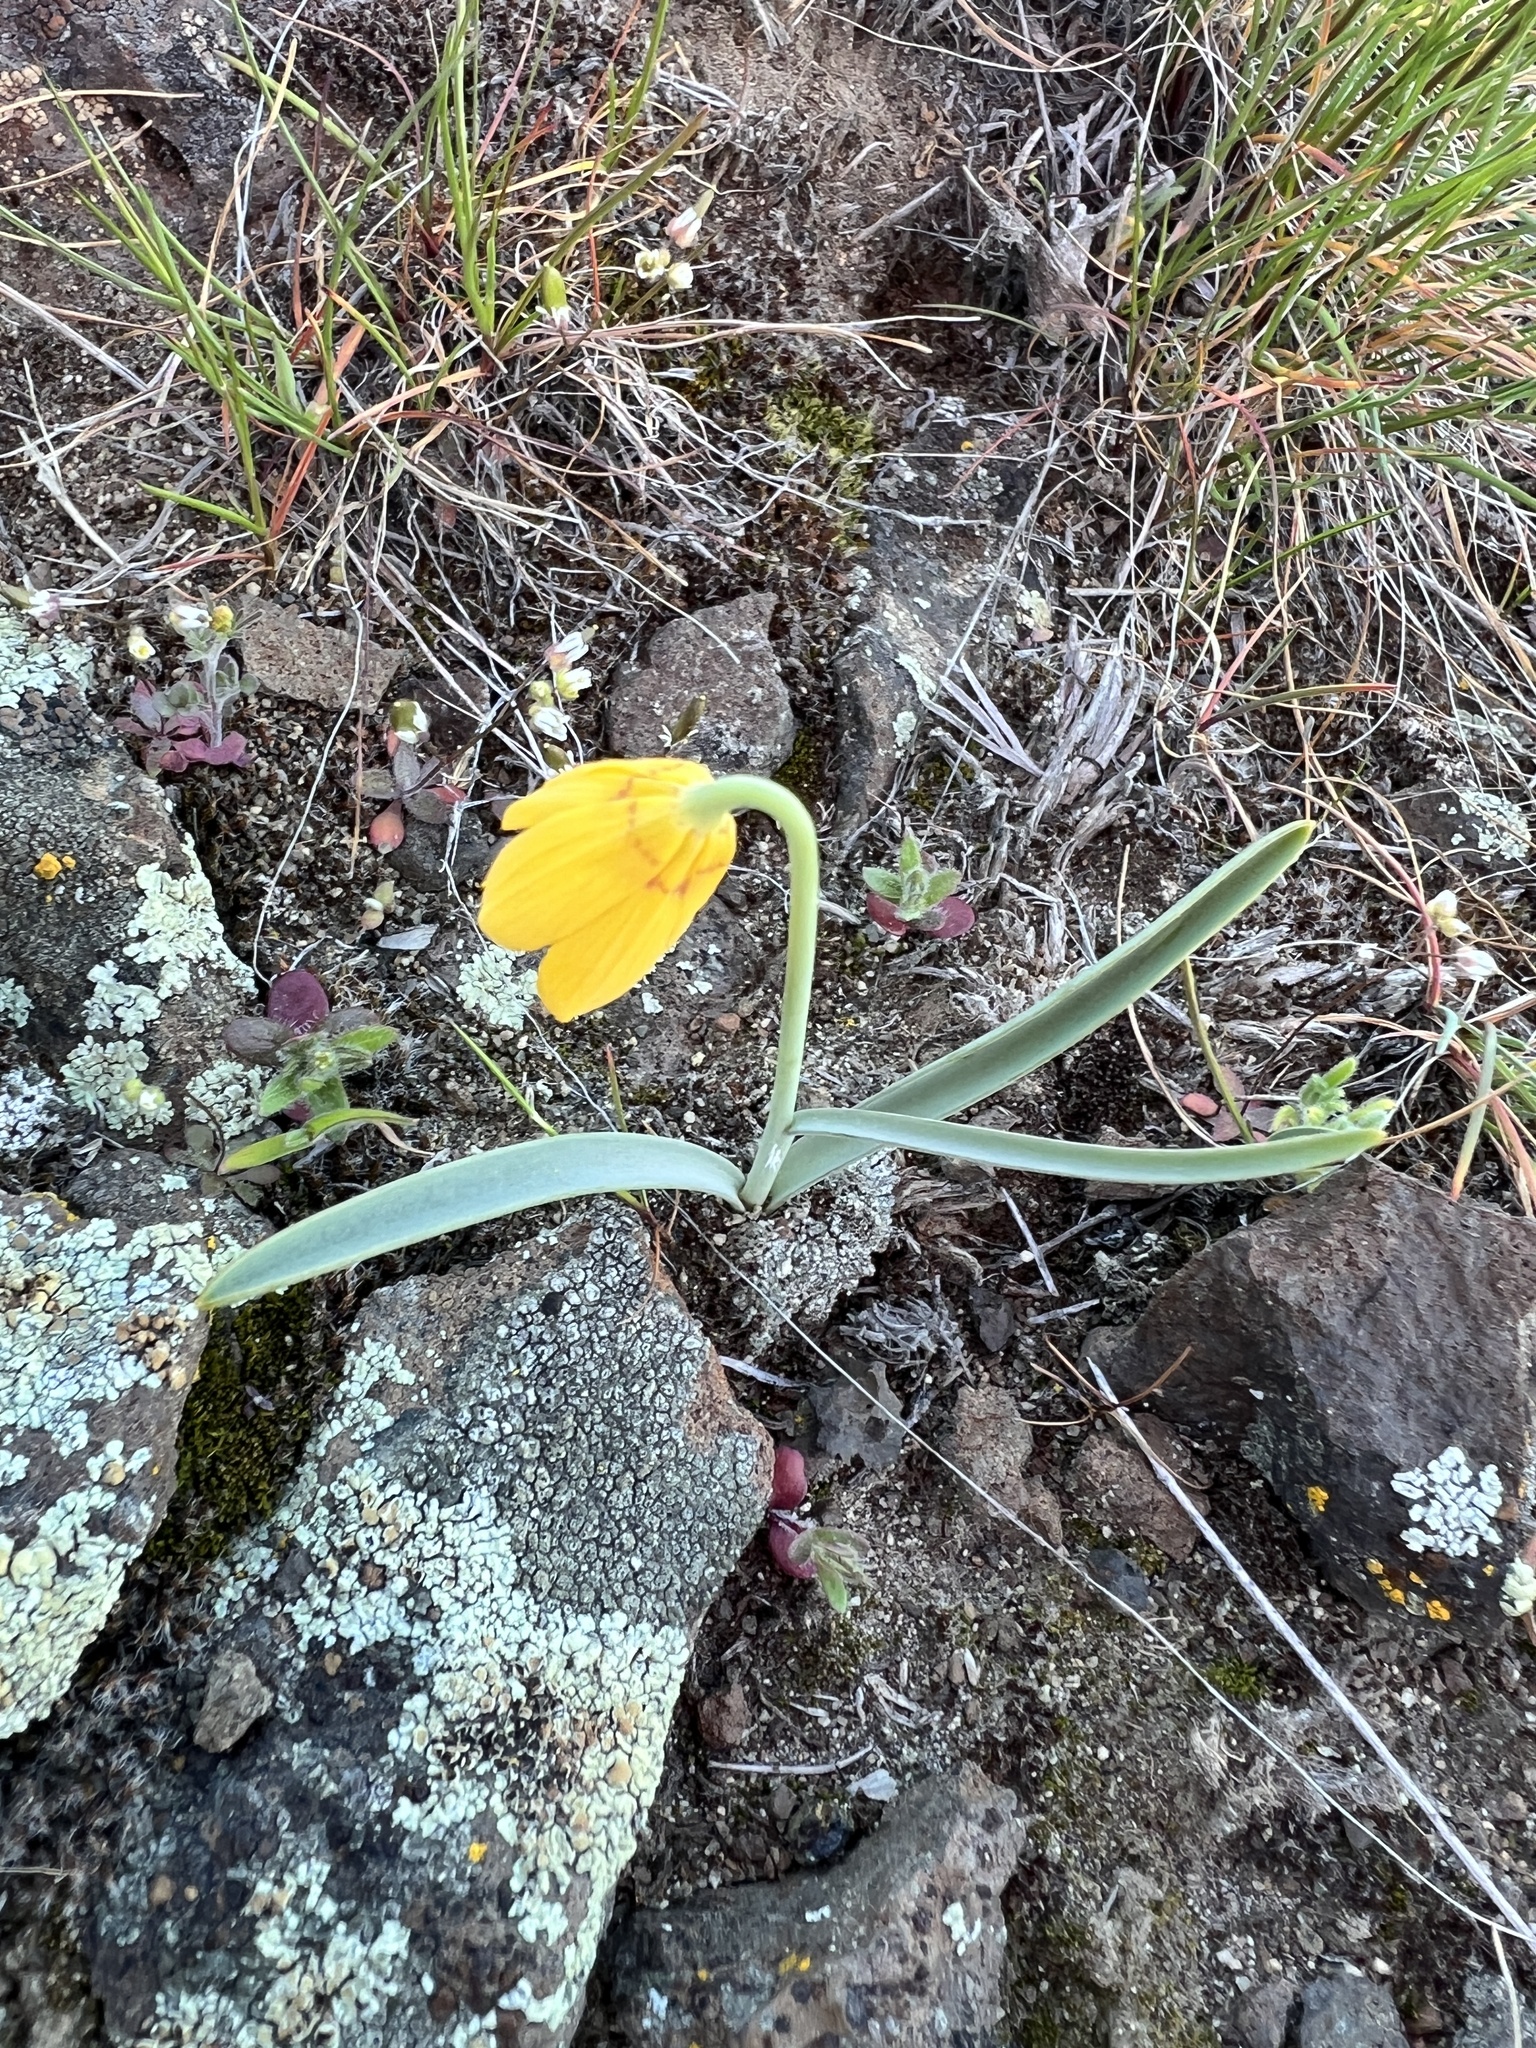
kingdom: Plantae
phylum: Tracheophyta
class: Liliopsida
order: Liliales
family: Liliaceae
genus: Fritillaria
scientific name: Fritillaria pudica
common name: Yellow fritillary
